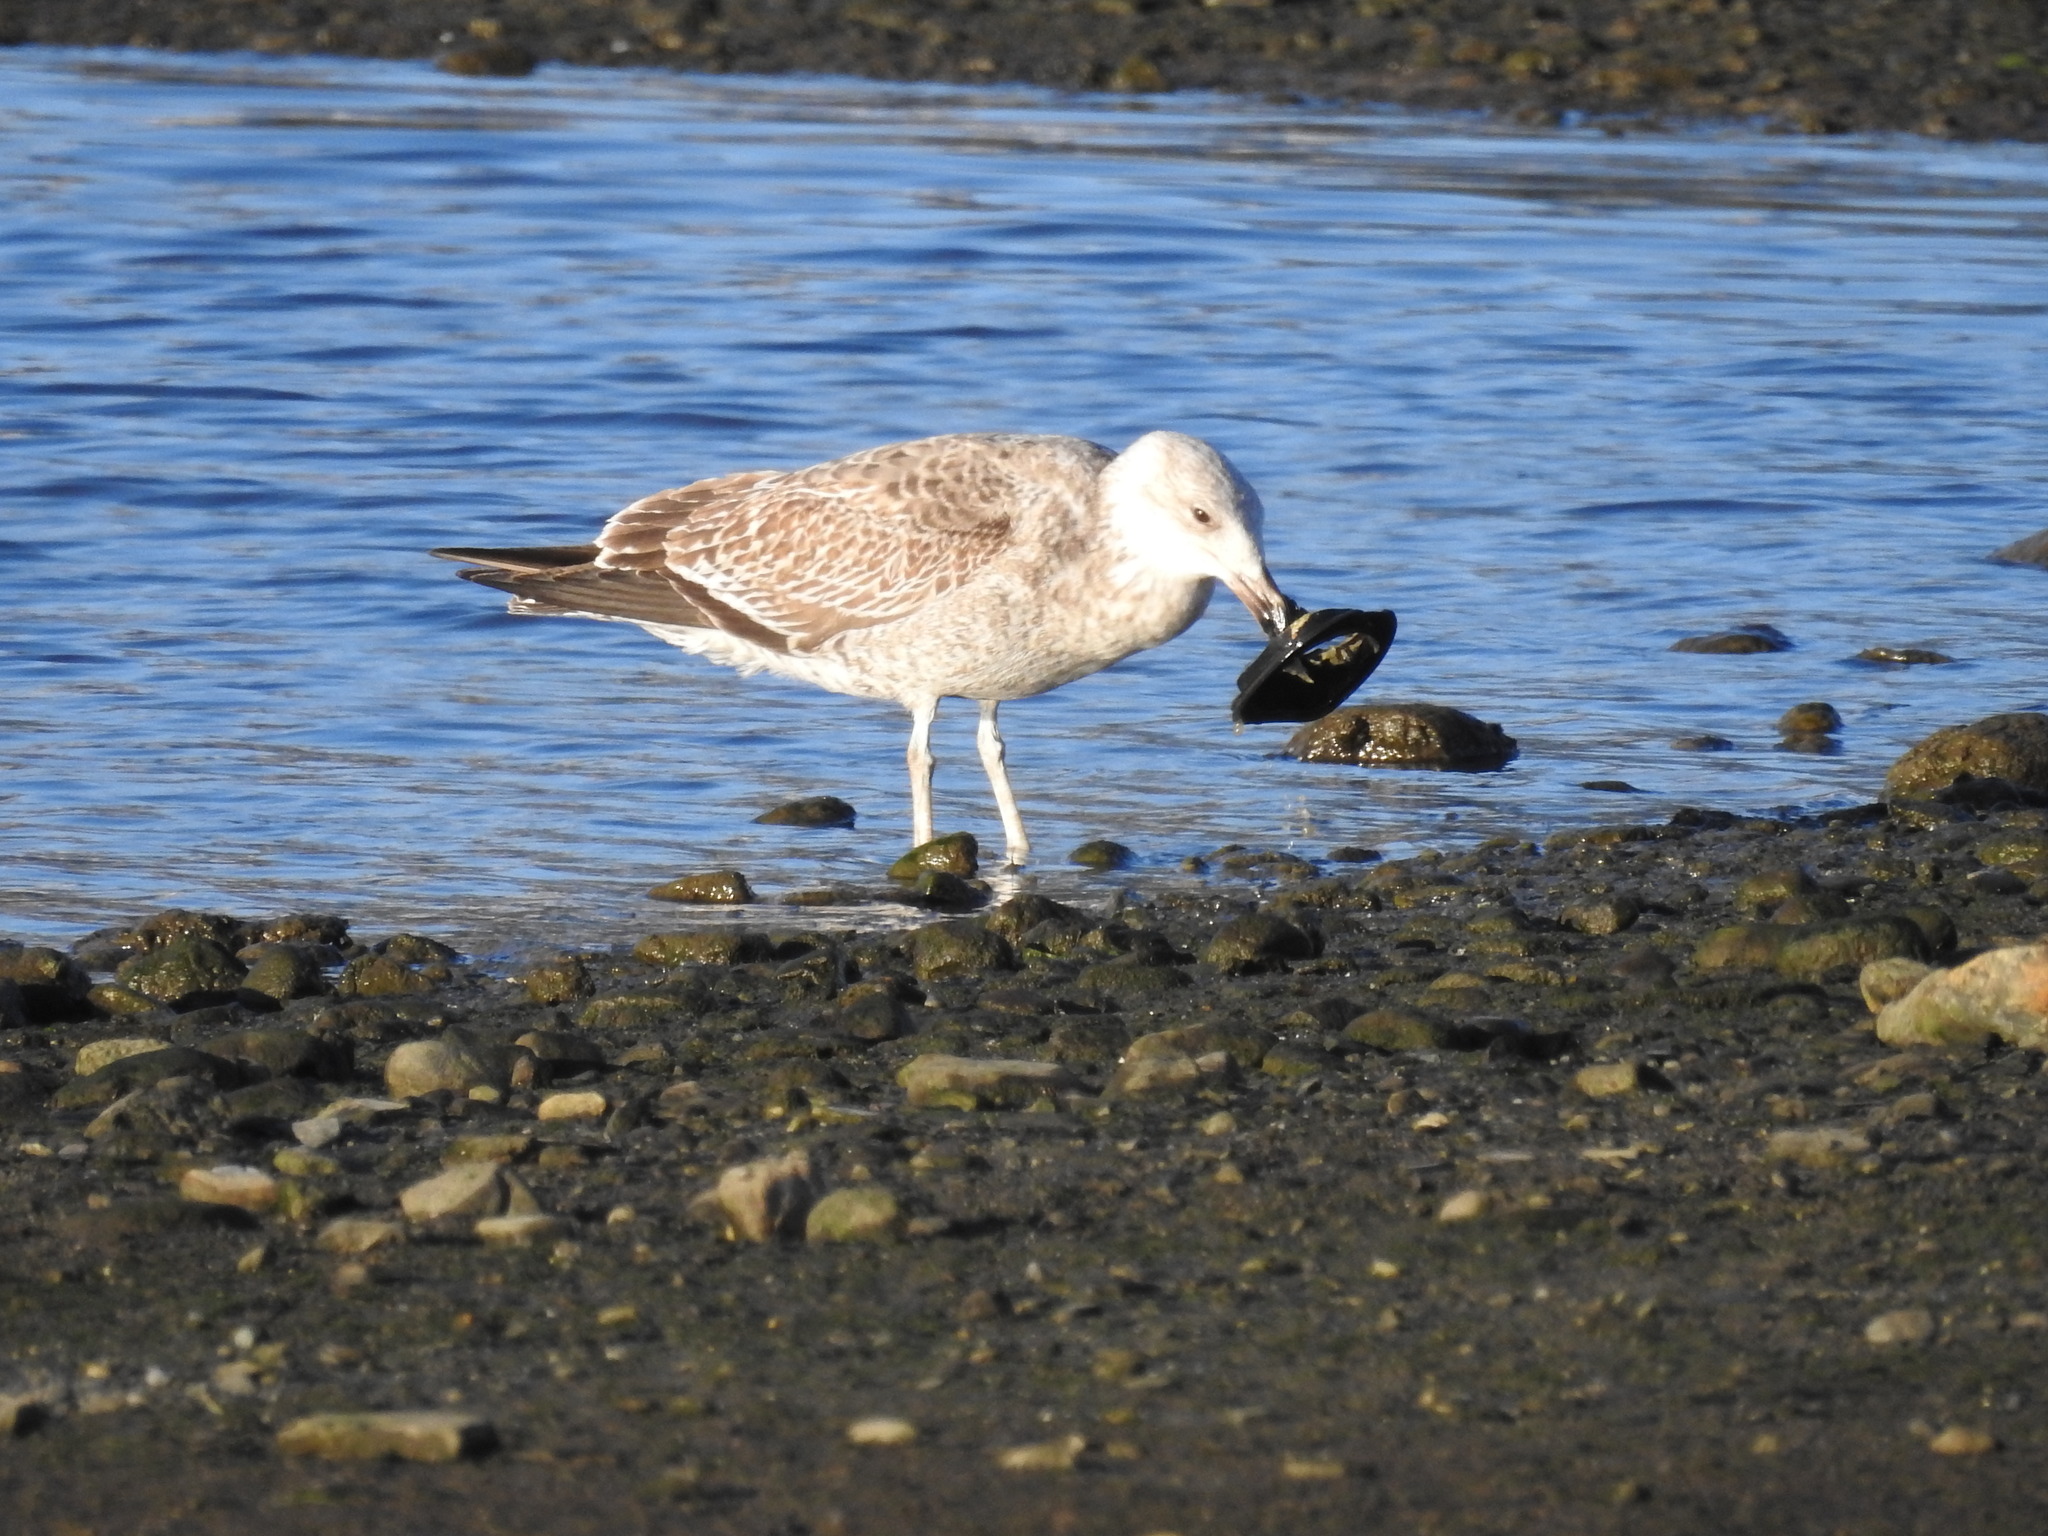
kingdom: Animalia
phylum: Chordata
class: Aves
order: Charadriiformes
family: Laridae
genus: Larus
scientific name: Larus dominicanus
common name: Kelp gull
